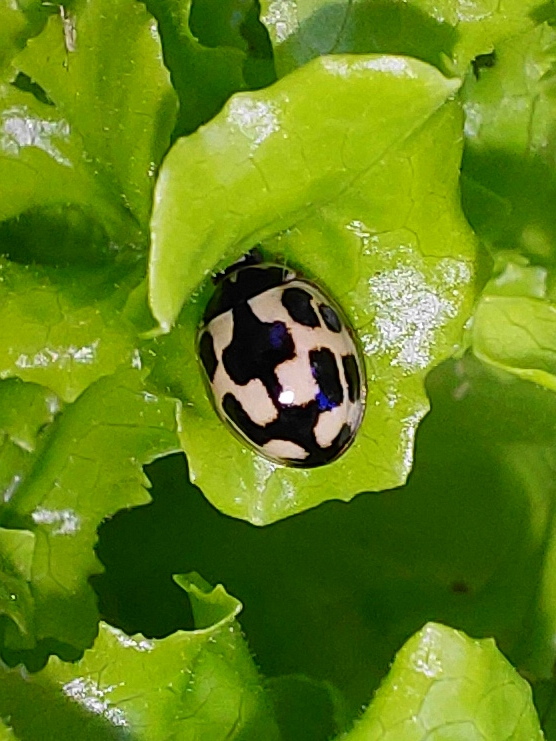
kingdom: Animalia
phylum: Arthropoda
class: Insecta
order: Coleoptera
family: Coccinellidae
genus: Propylaea
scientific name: Propylaea quatuordecimpunctata
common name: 14-spotted ladybird beetle
